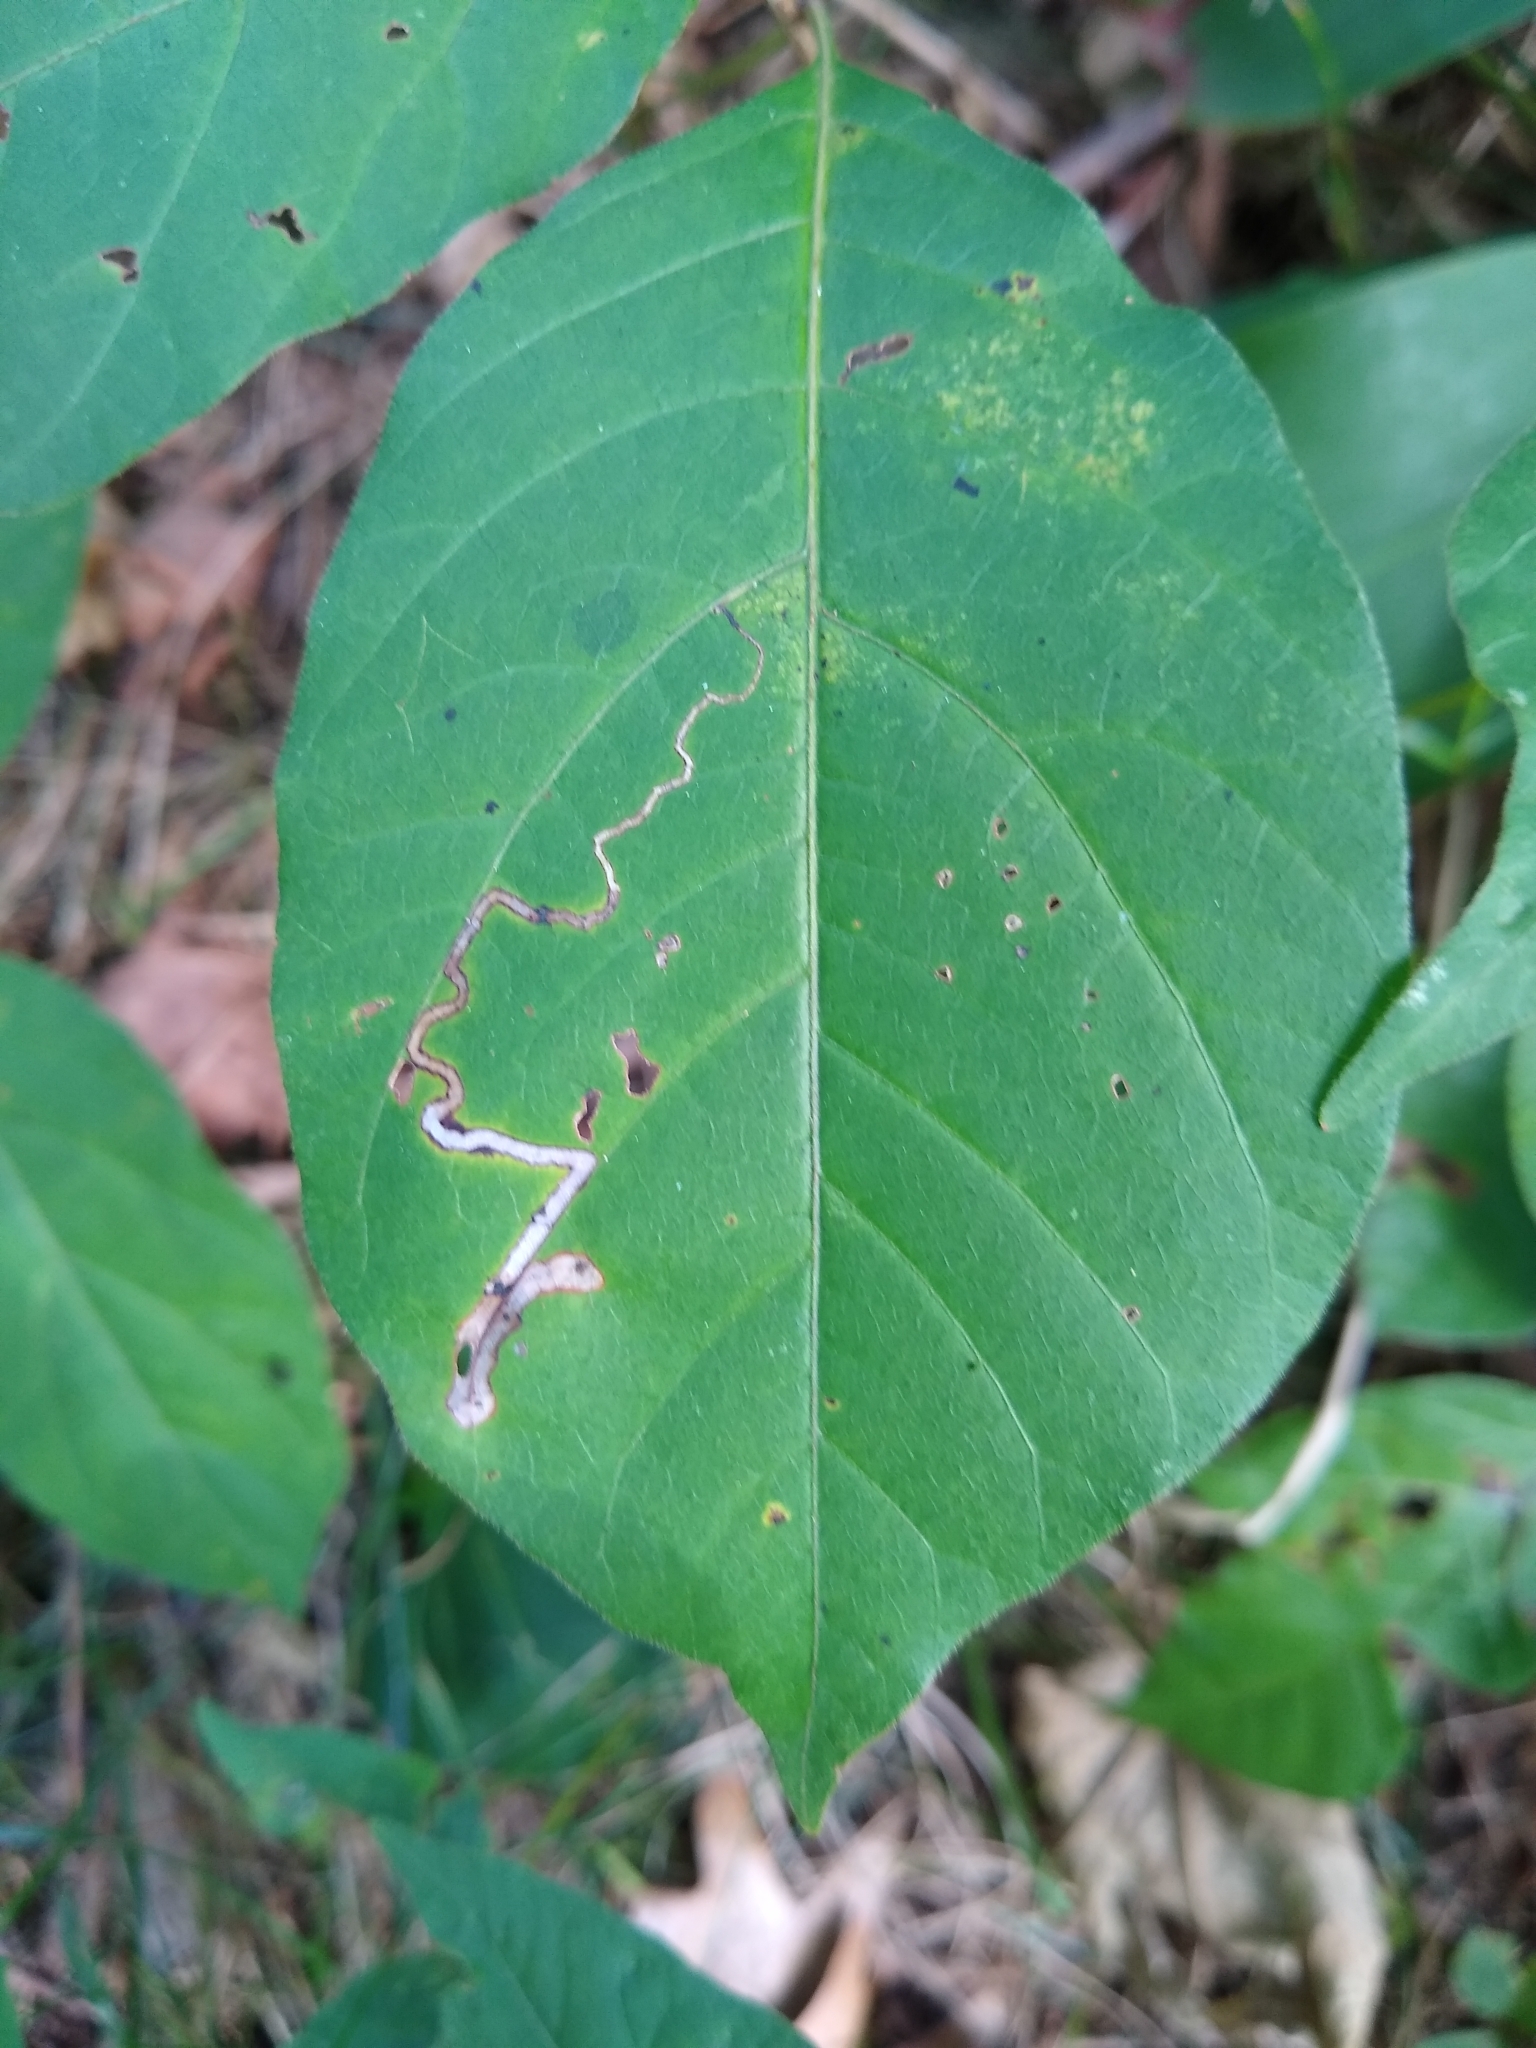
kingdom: Animalia
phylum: Arthropoda
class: Insecta
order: Lepidoptera
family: Nepticulidae
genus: Stigmella
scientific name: Stigmella rhoifoliella
